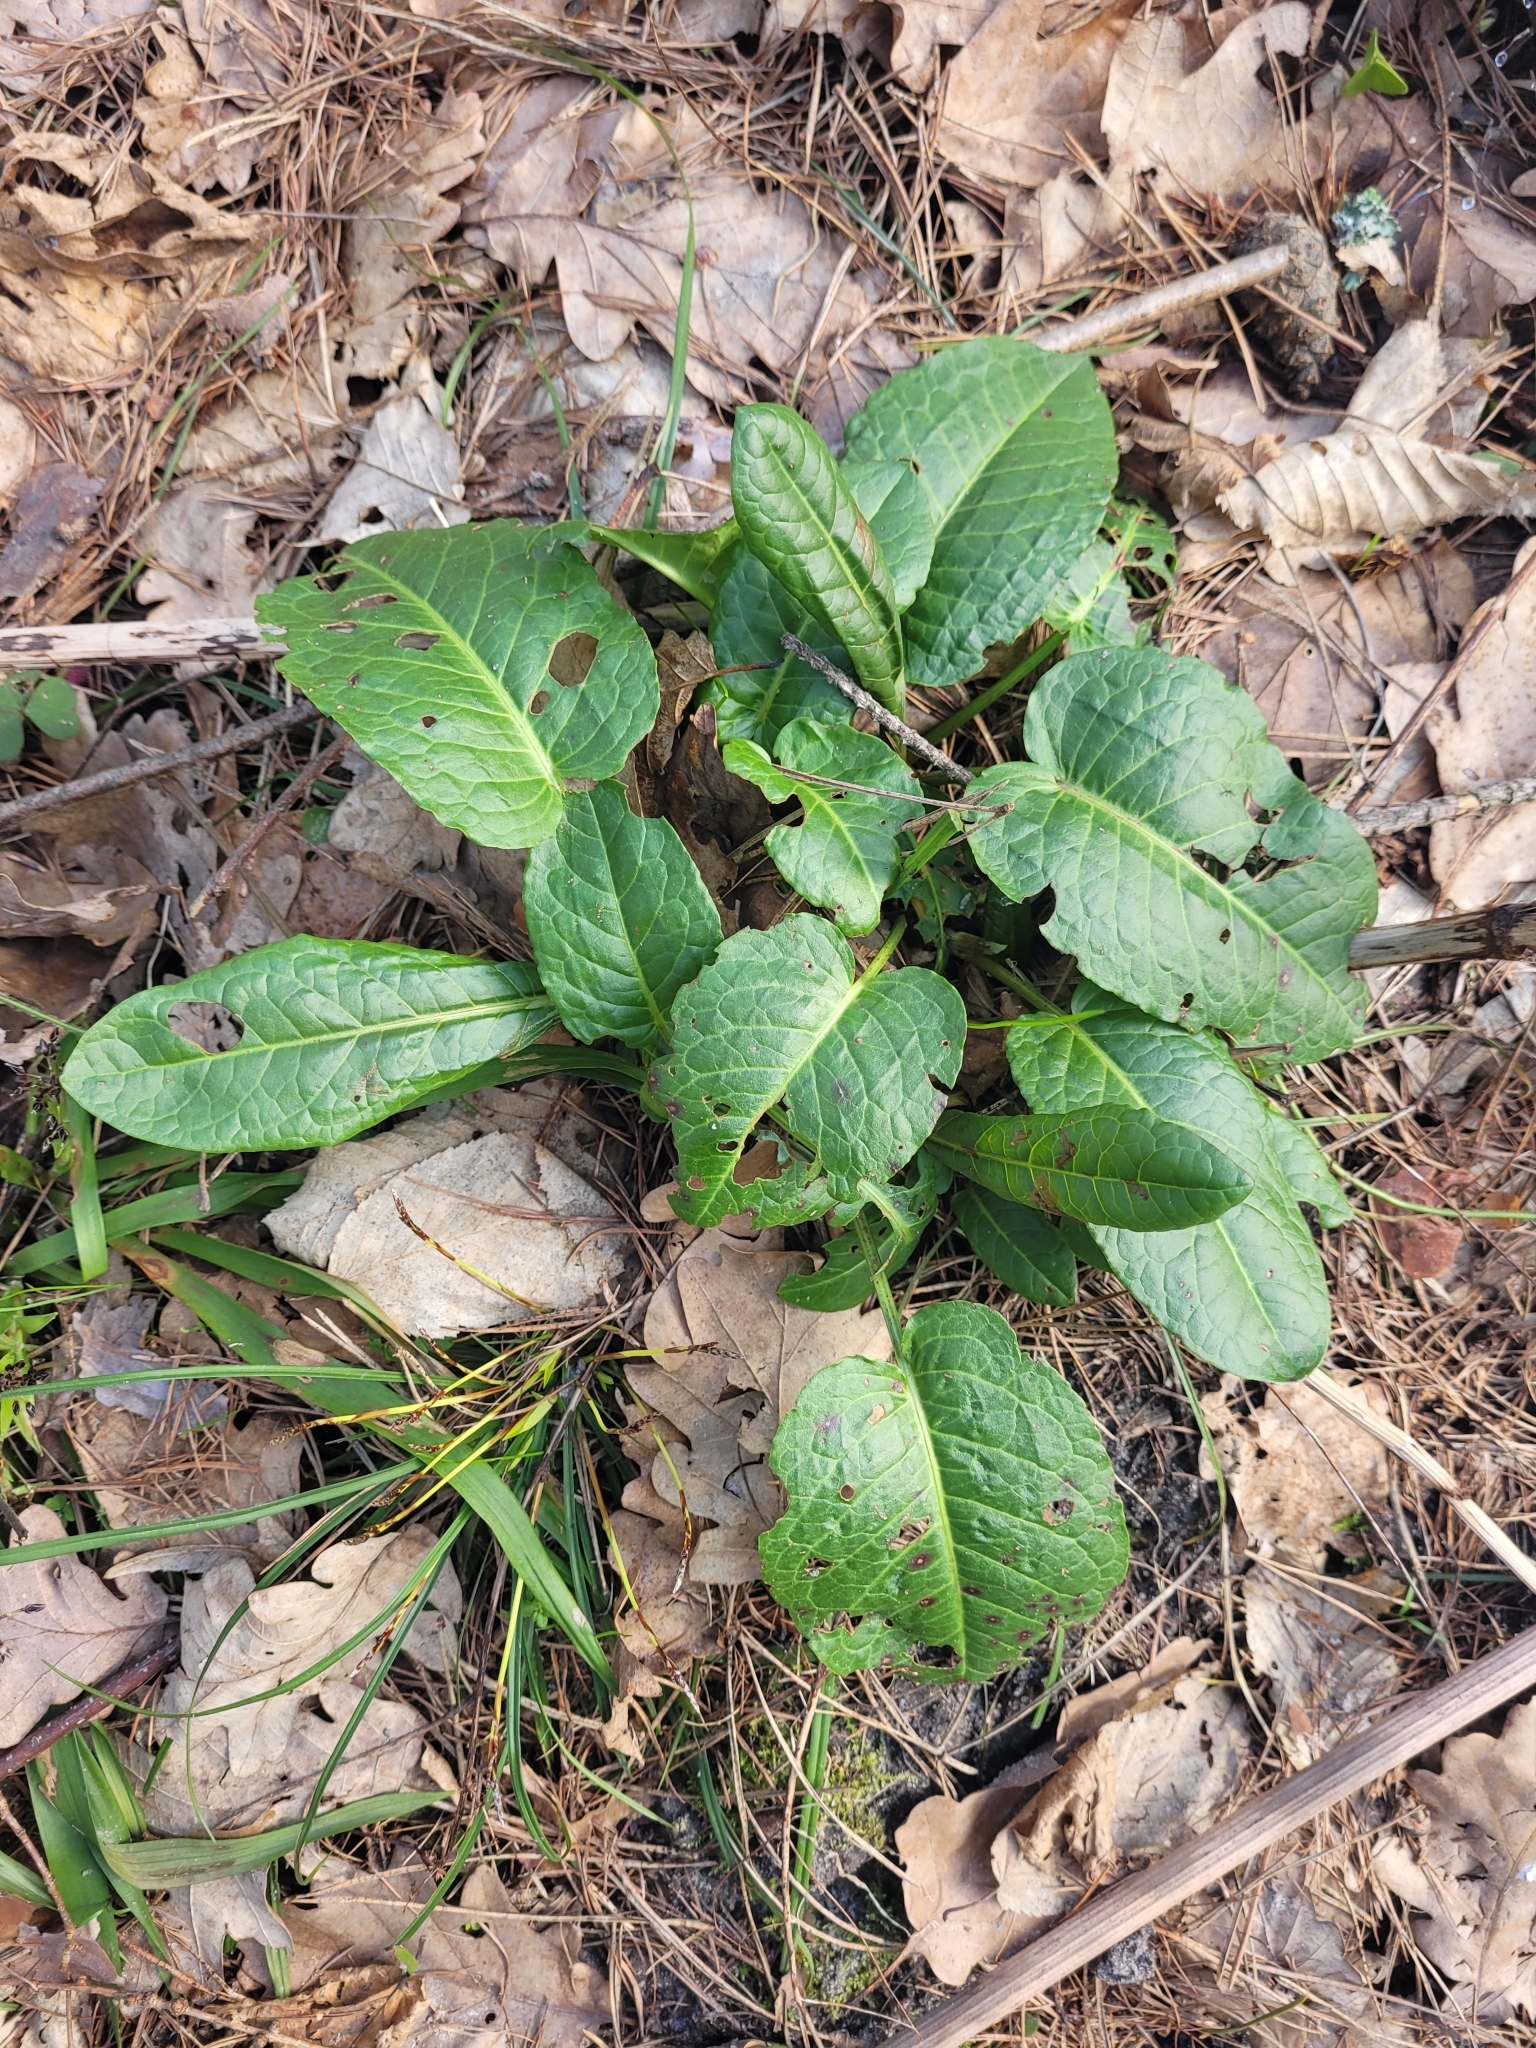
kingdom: Plantae
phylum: Tracheophyta
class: Magnoliopsida
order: Caryophyllales
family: Polygonaceae
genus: Rumex
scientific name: Rumex obtusifolius
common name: Bitter dock
